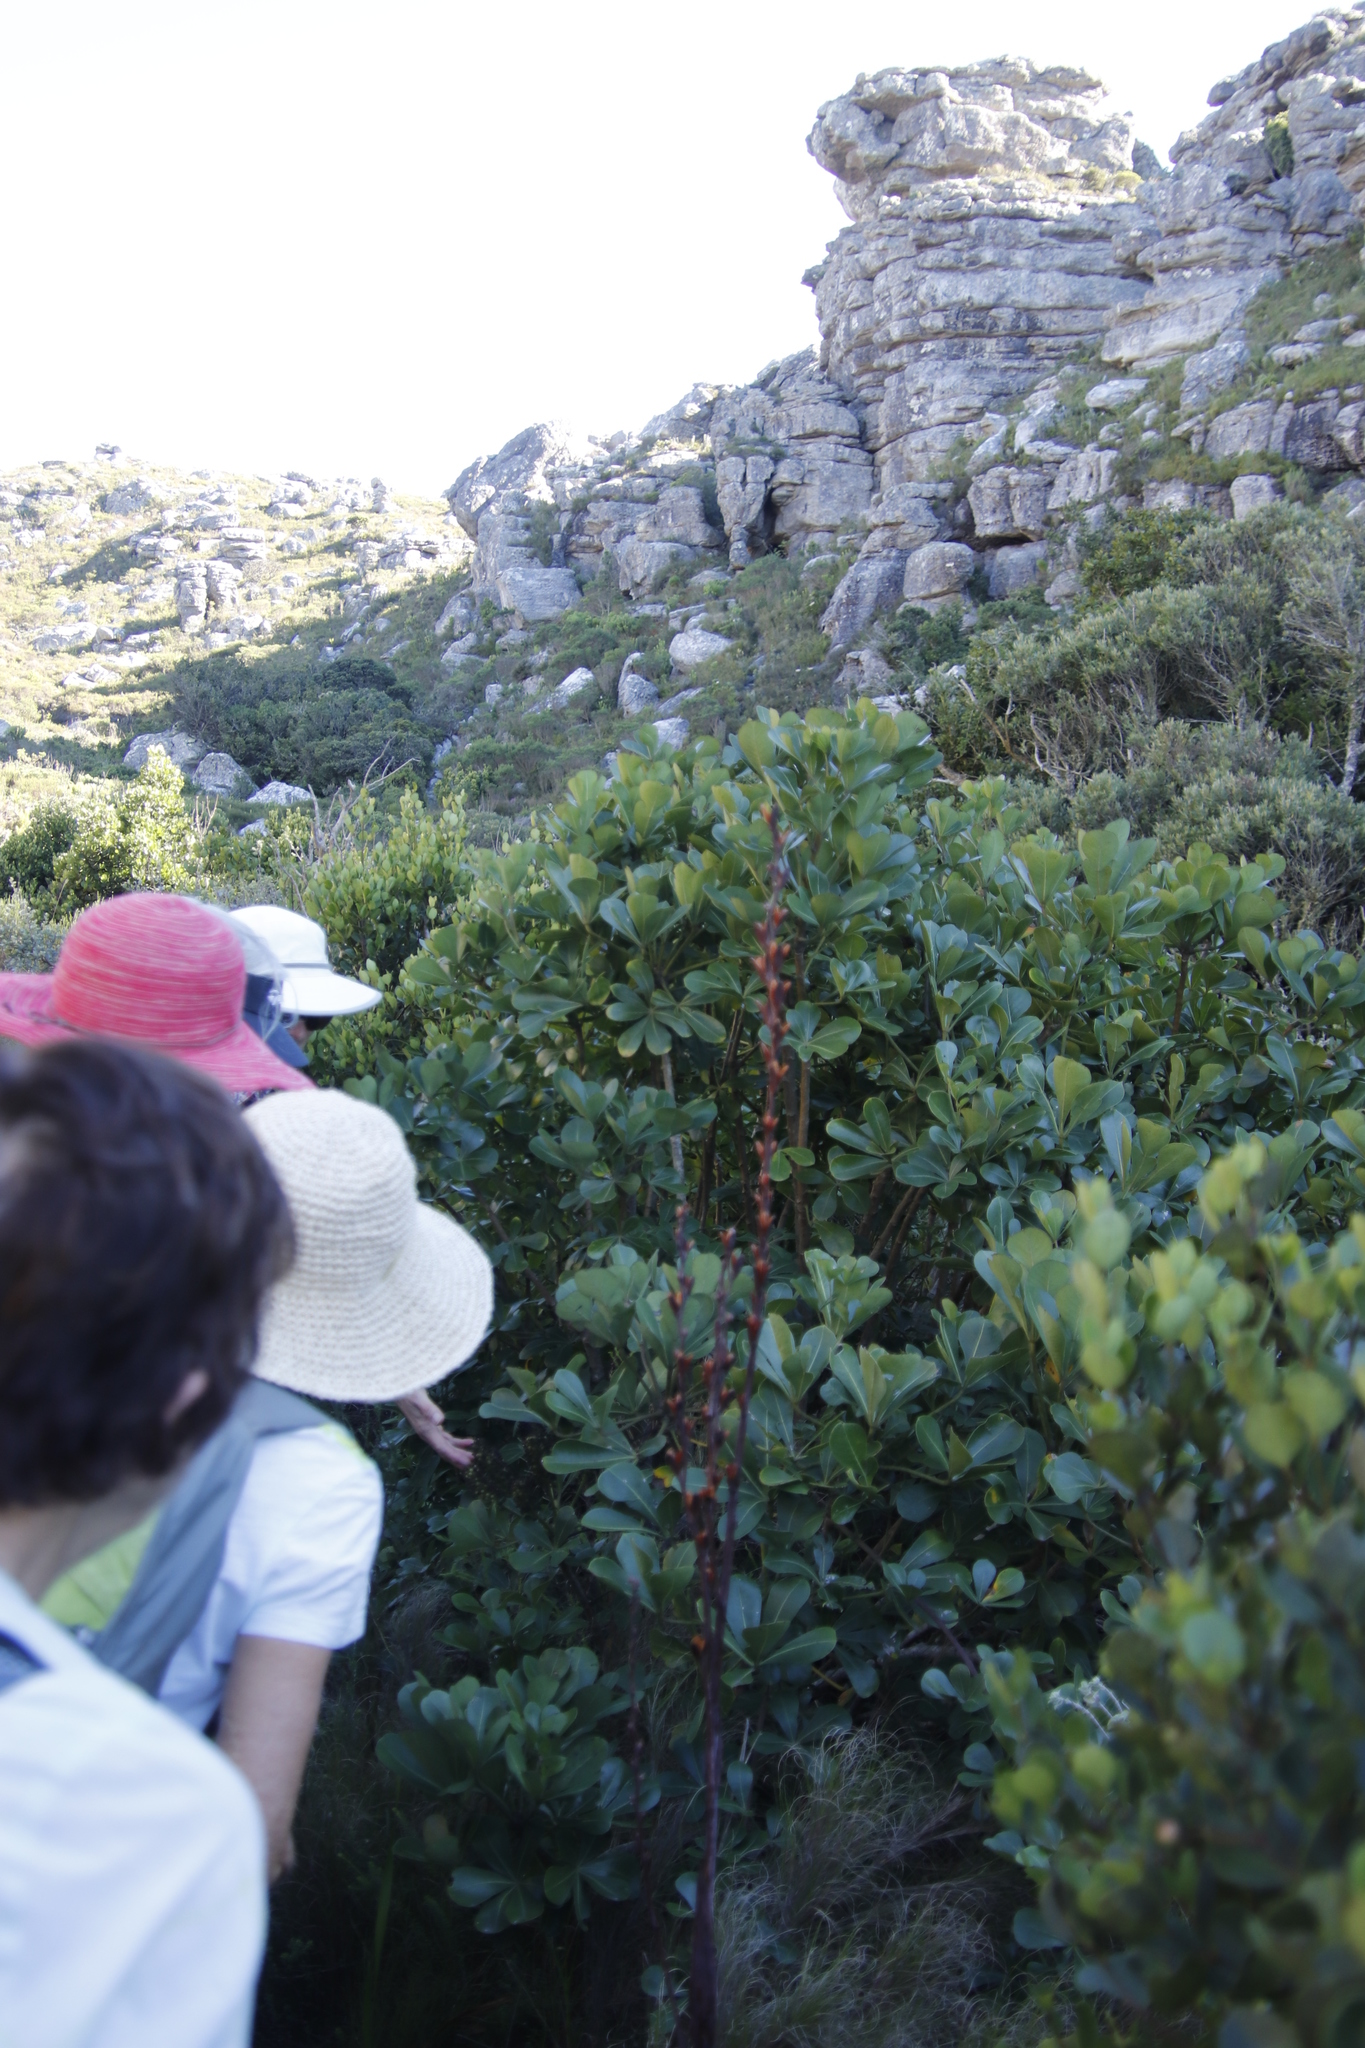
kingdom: Plantae
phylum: Tracheophyta
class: Magnoliopsida
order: Apiales
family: Araliaceae
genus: Cussonia
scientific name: Cussonia thyrsiflora
